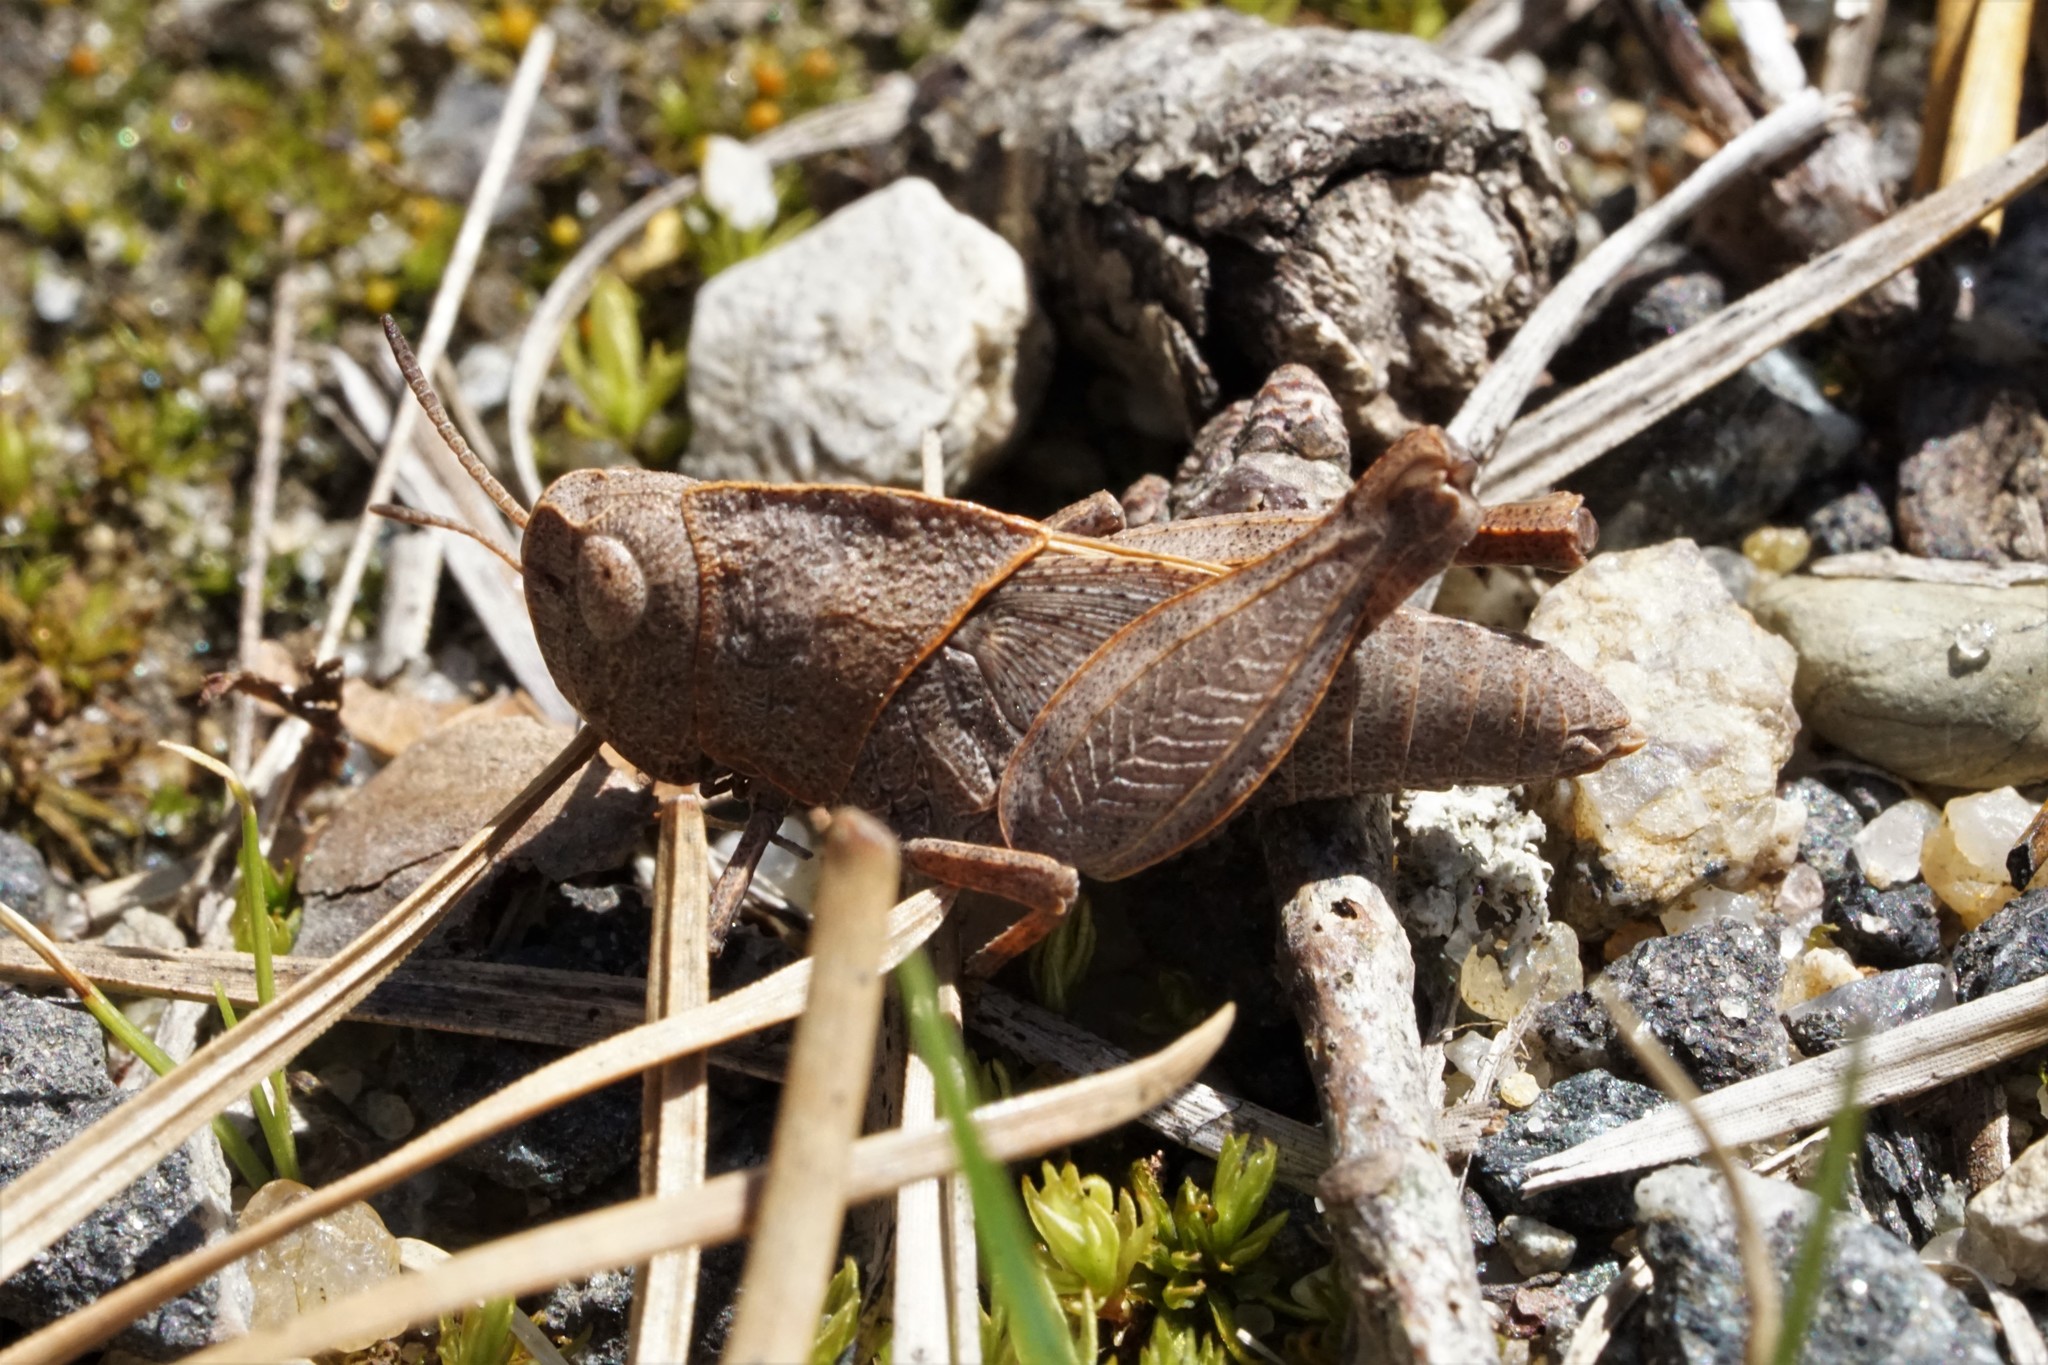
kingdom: Animalia
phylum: Arthropoda
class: Insecta
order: Orthoptera
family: Acrididae
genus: Arphia
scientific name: Arphia sulphurea
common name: Spring yellow-winged locust
